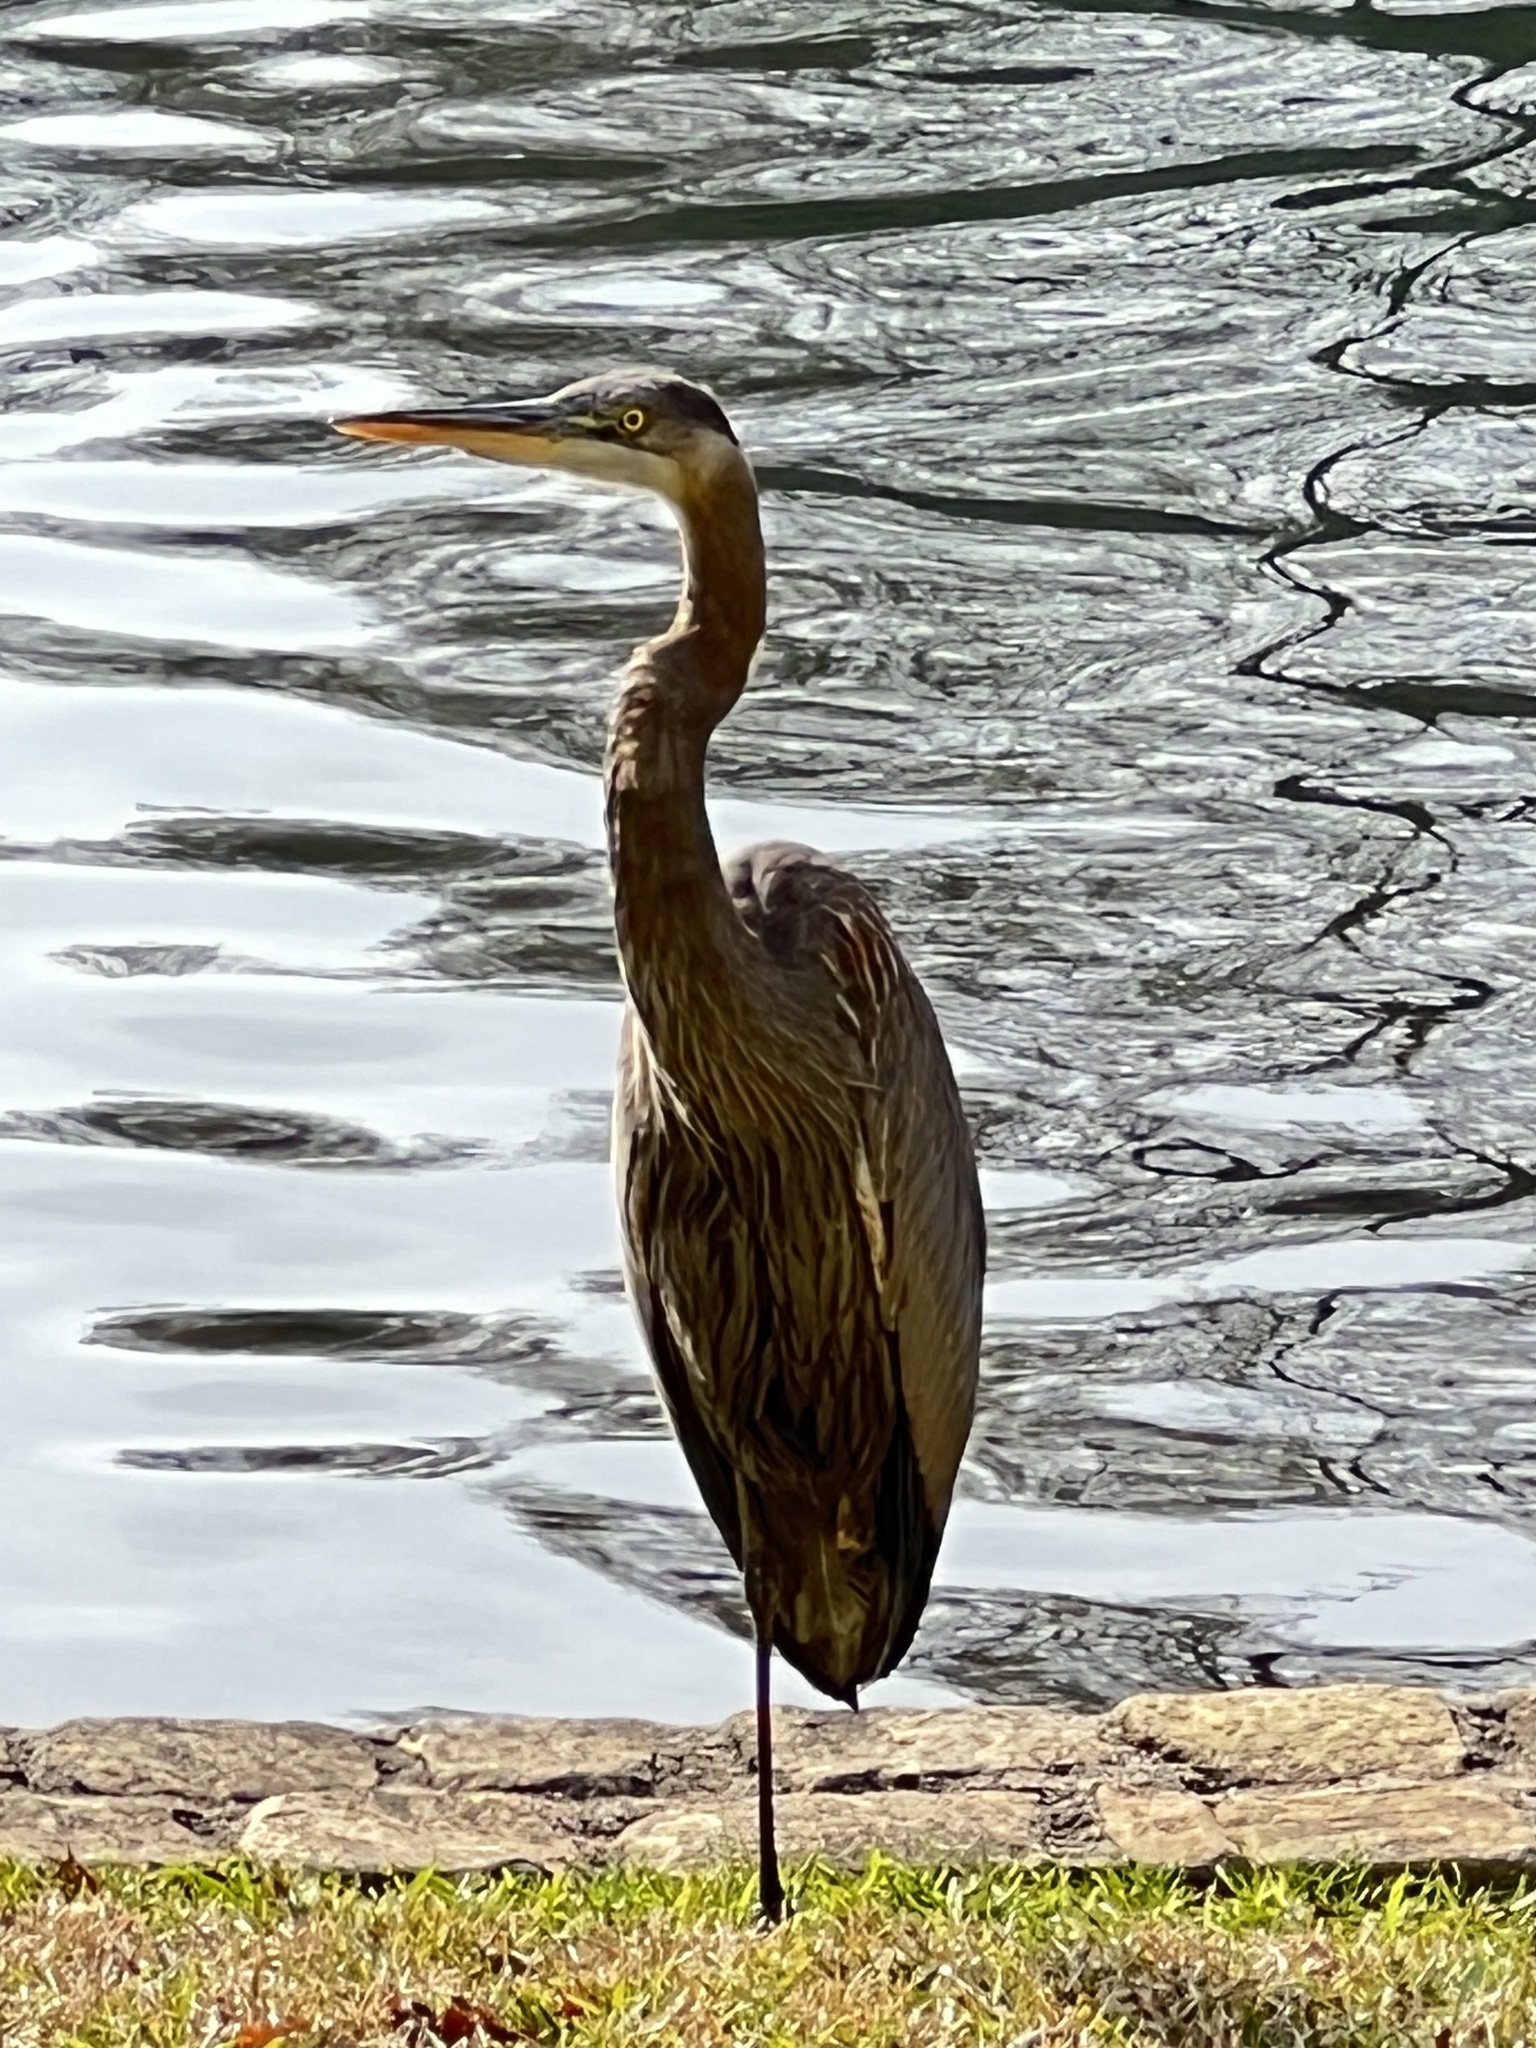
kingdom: Animalia
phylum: Chordata
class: Aves
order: Pelecaniformes
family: Ardeidae
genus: Ardea
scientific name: Ardea herodias
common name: Great blue heron
